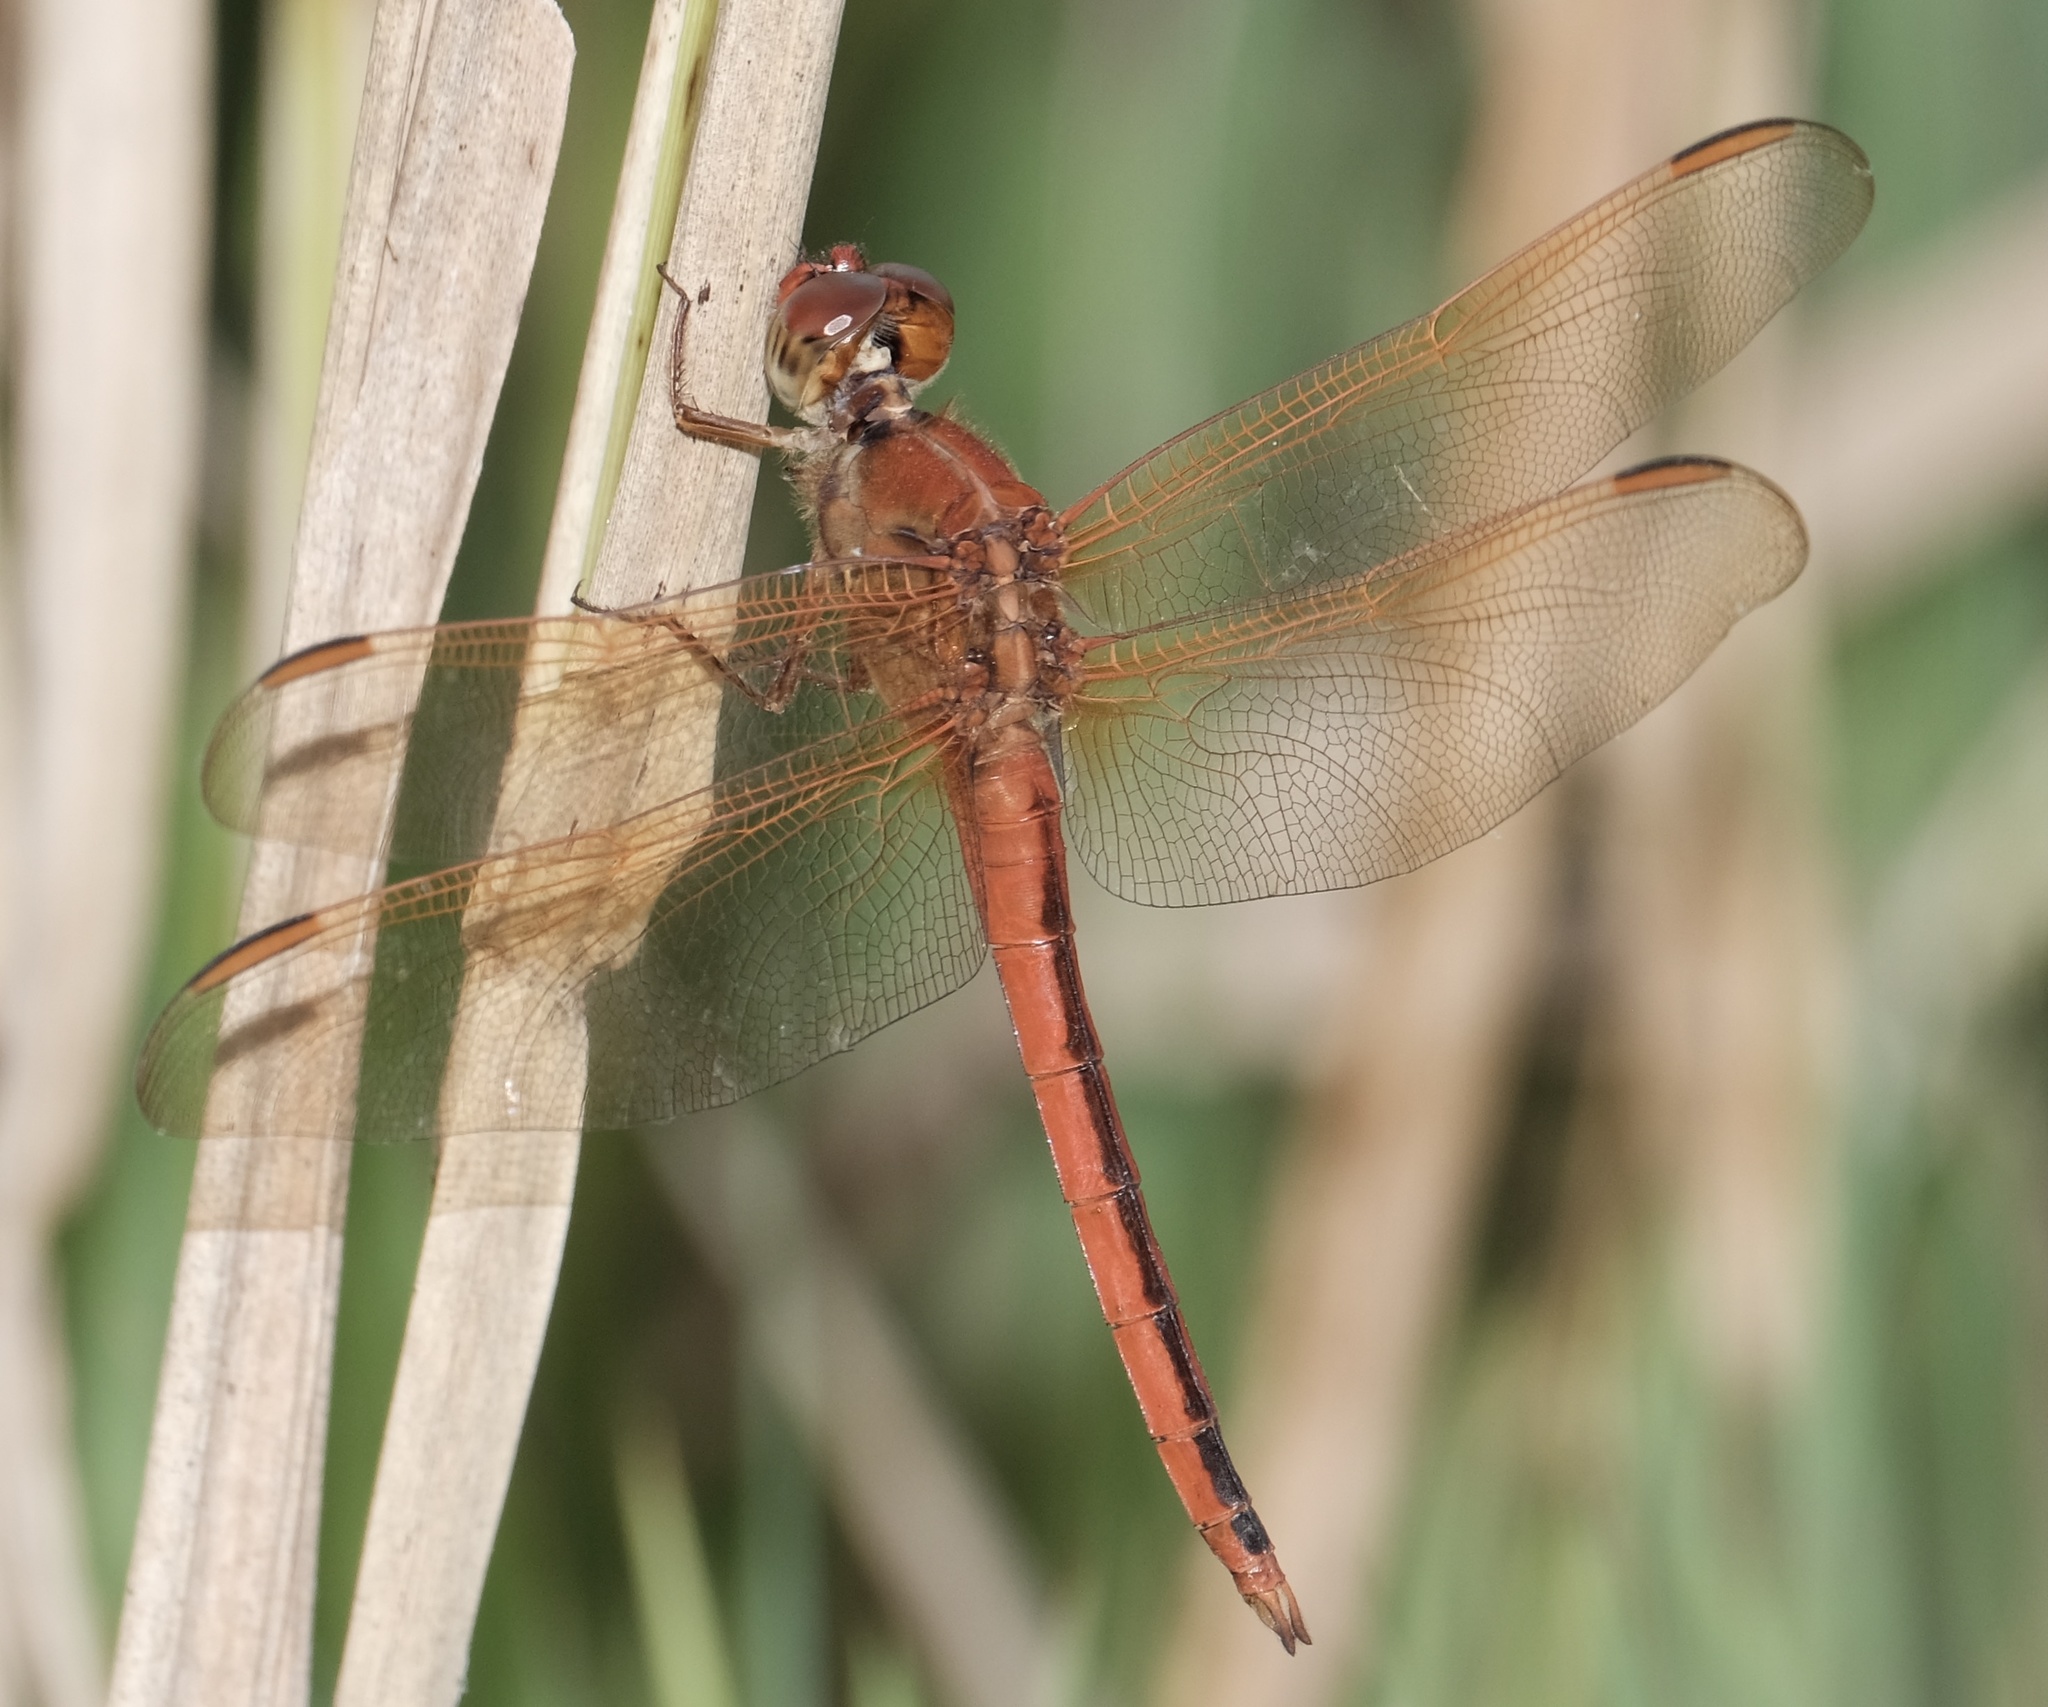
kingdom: Animalia
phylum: Arthropoda
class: Insecta
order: Odonata
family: Libellulidae
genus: Libellula
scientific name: Libellula needhami
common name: Needham's skimmer
